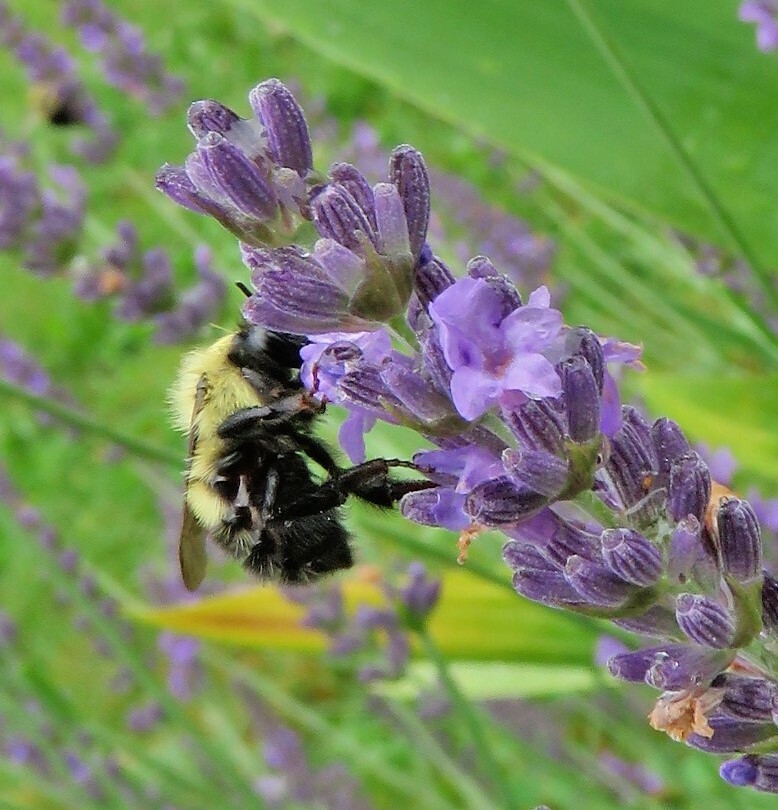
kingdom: Animalia
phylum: Arthropoda
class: Insecta
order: Hymenoptera
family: Apidae
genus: Pyrobombus
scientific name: Pyrobombus
